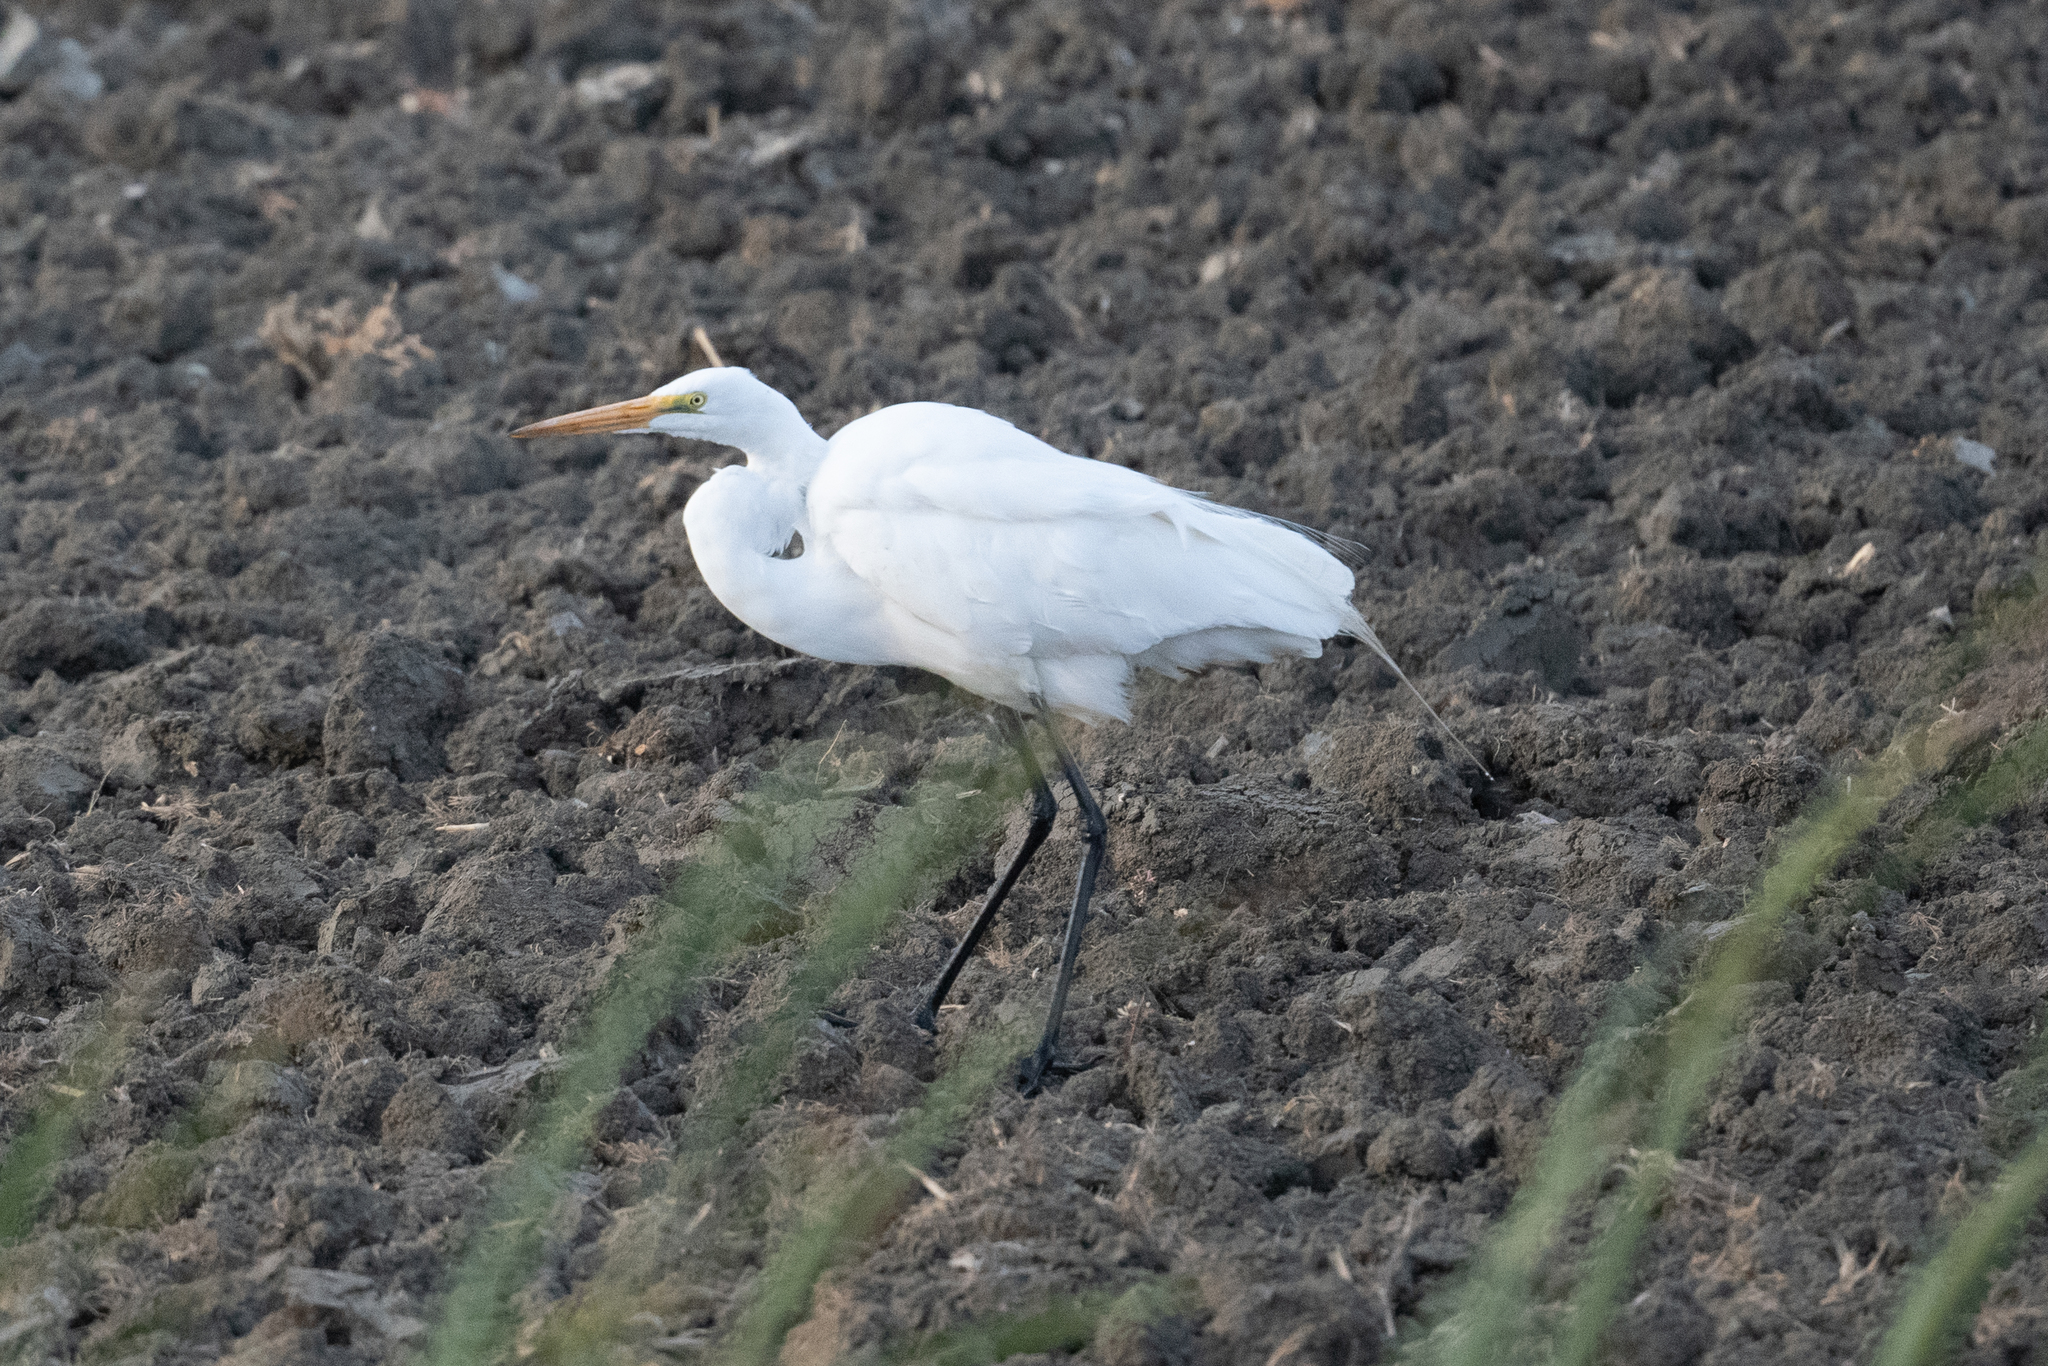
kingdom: Animalia
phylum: Chordata
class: Aves
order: Pelecaniformes
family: Ardeidae
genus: Ardea
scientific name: Ardea alba
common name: Great egret
